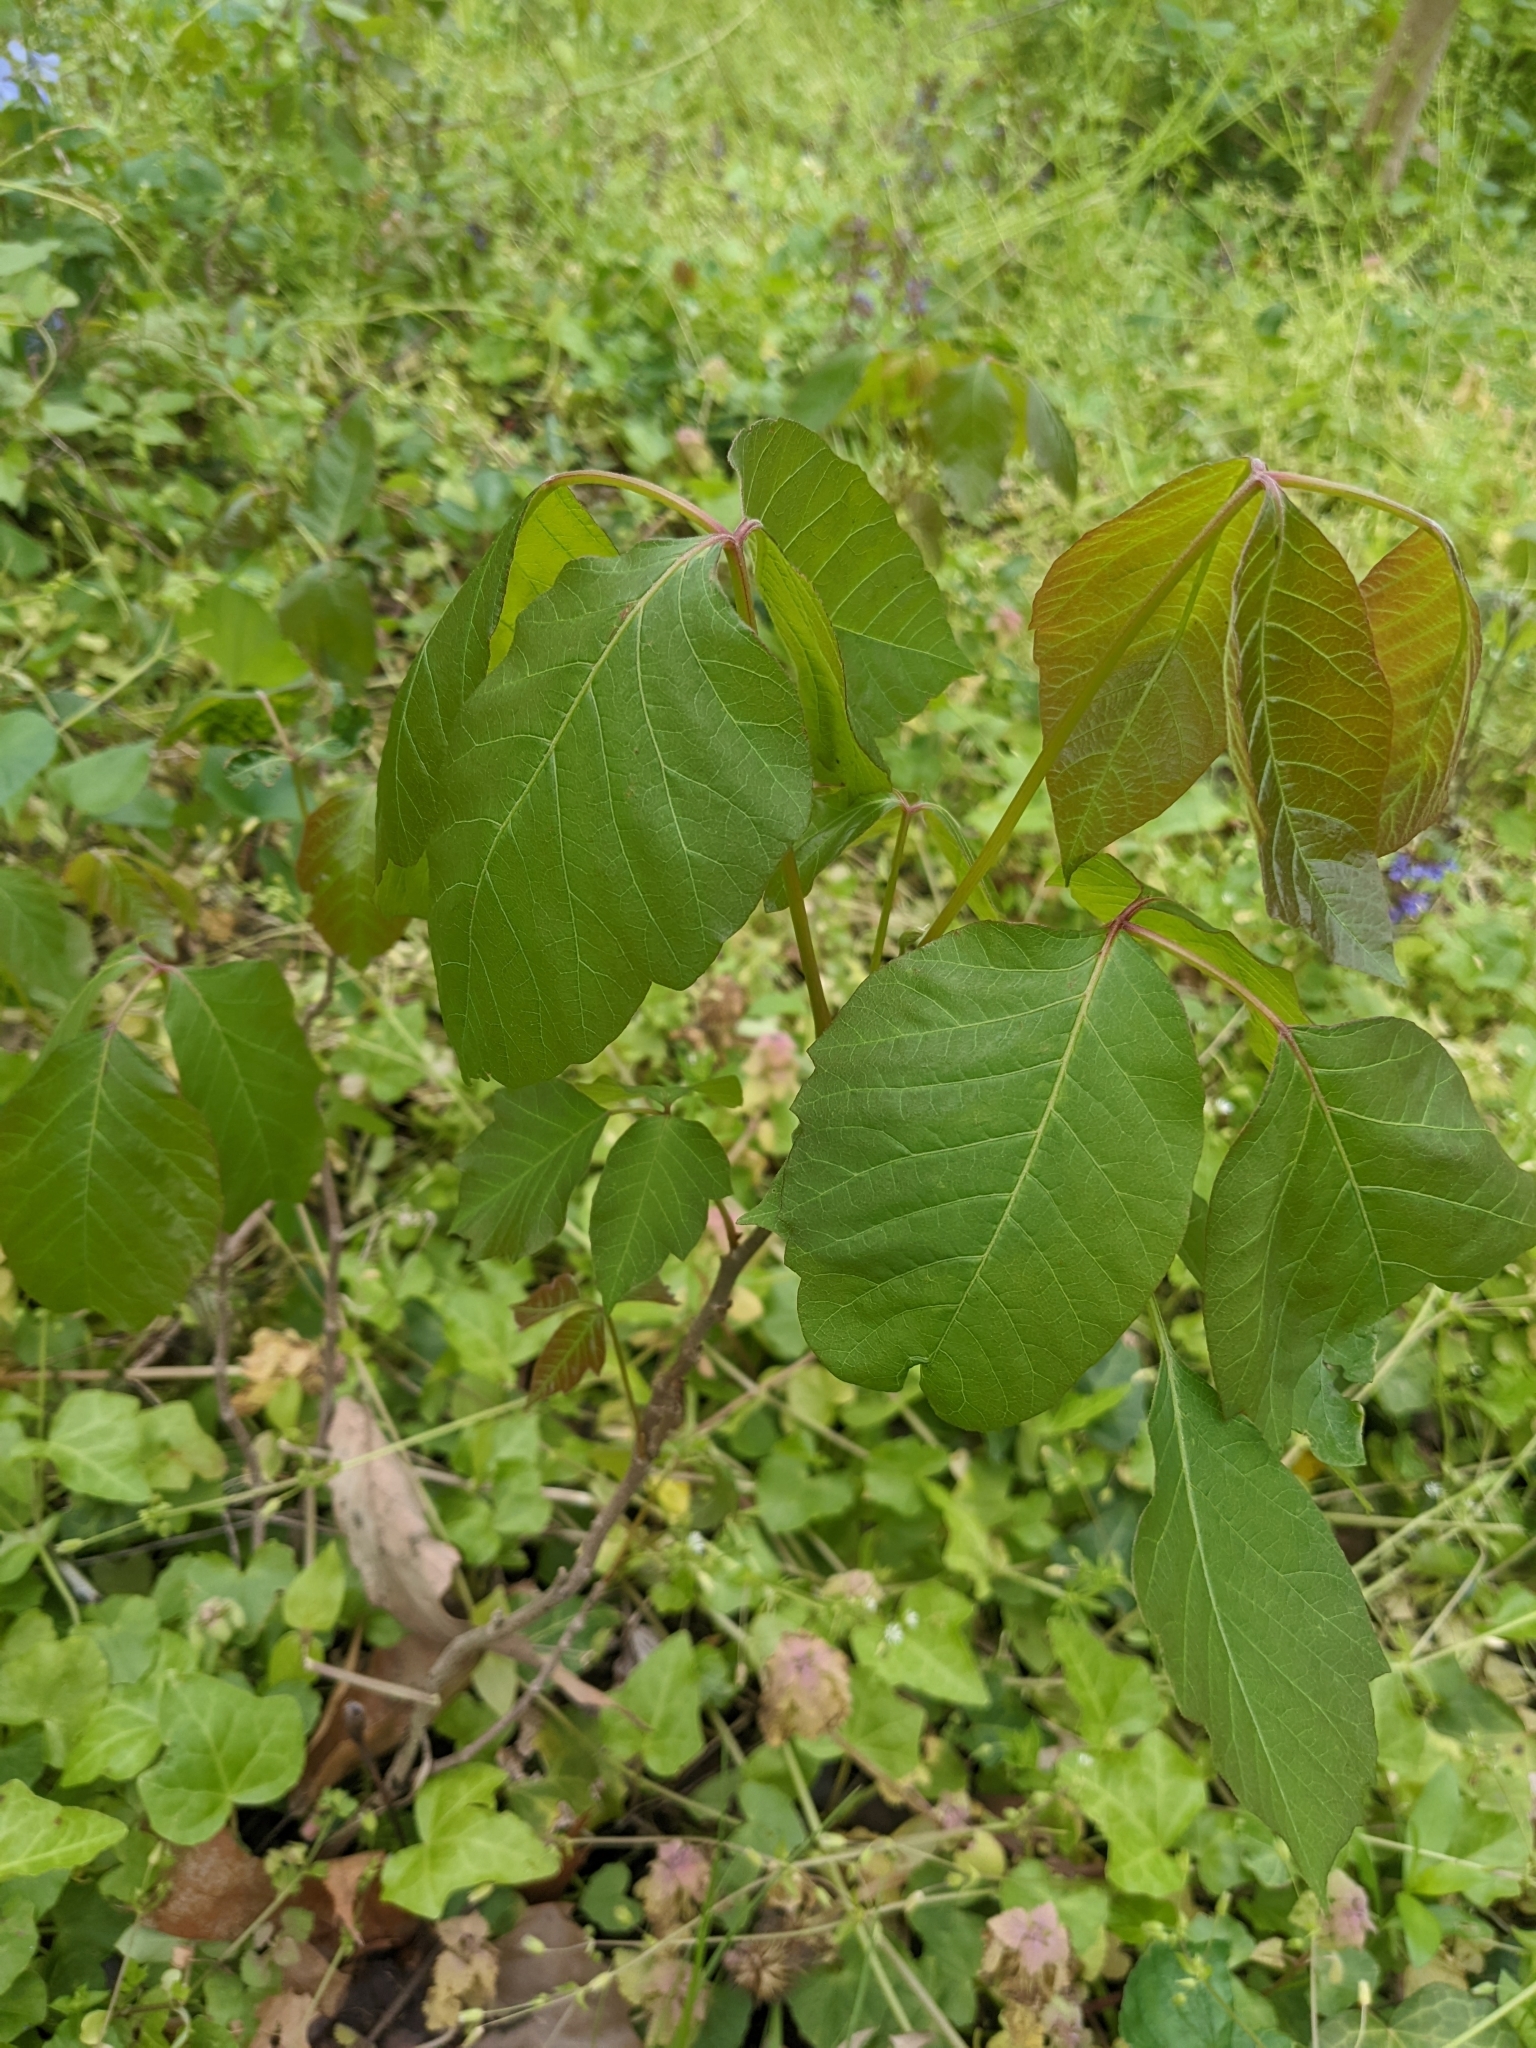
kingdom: Plantae
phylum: Tracheophyta
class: Magnoliopsida
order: Sapindales
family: Anacardiaceae
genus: Toxicodendron
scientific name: Toxicodendron radicans
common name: Poison ivy
